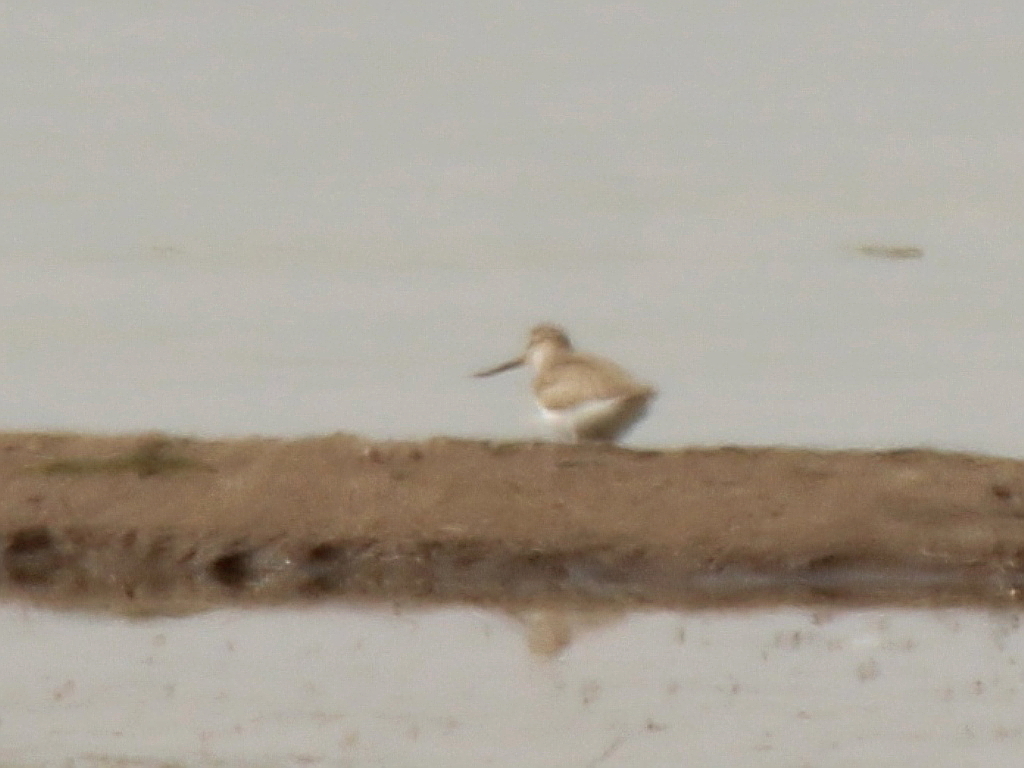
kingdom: Animalia
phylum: Chordata
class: Aves
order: Charadriiformes
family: Scolopacidae
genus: Xenus
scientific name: Xenus cinereus
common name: Terek sandpiper
